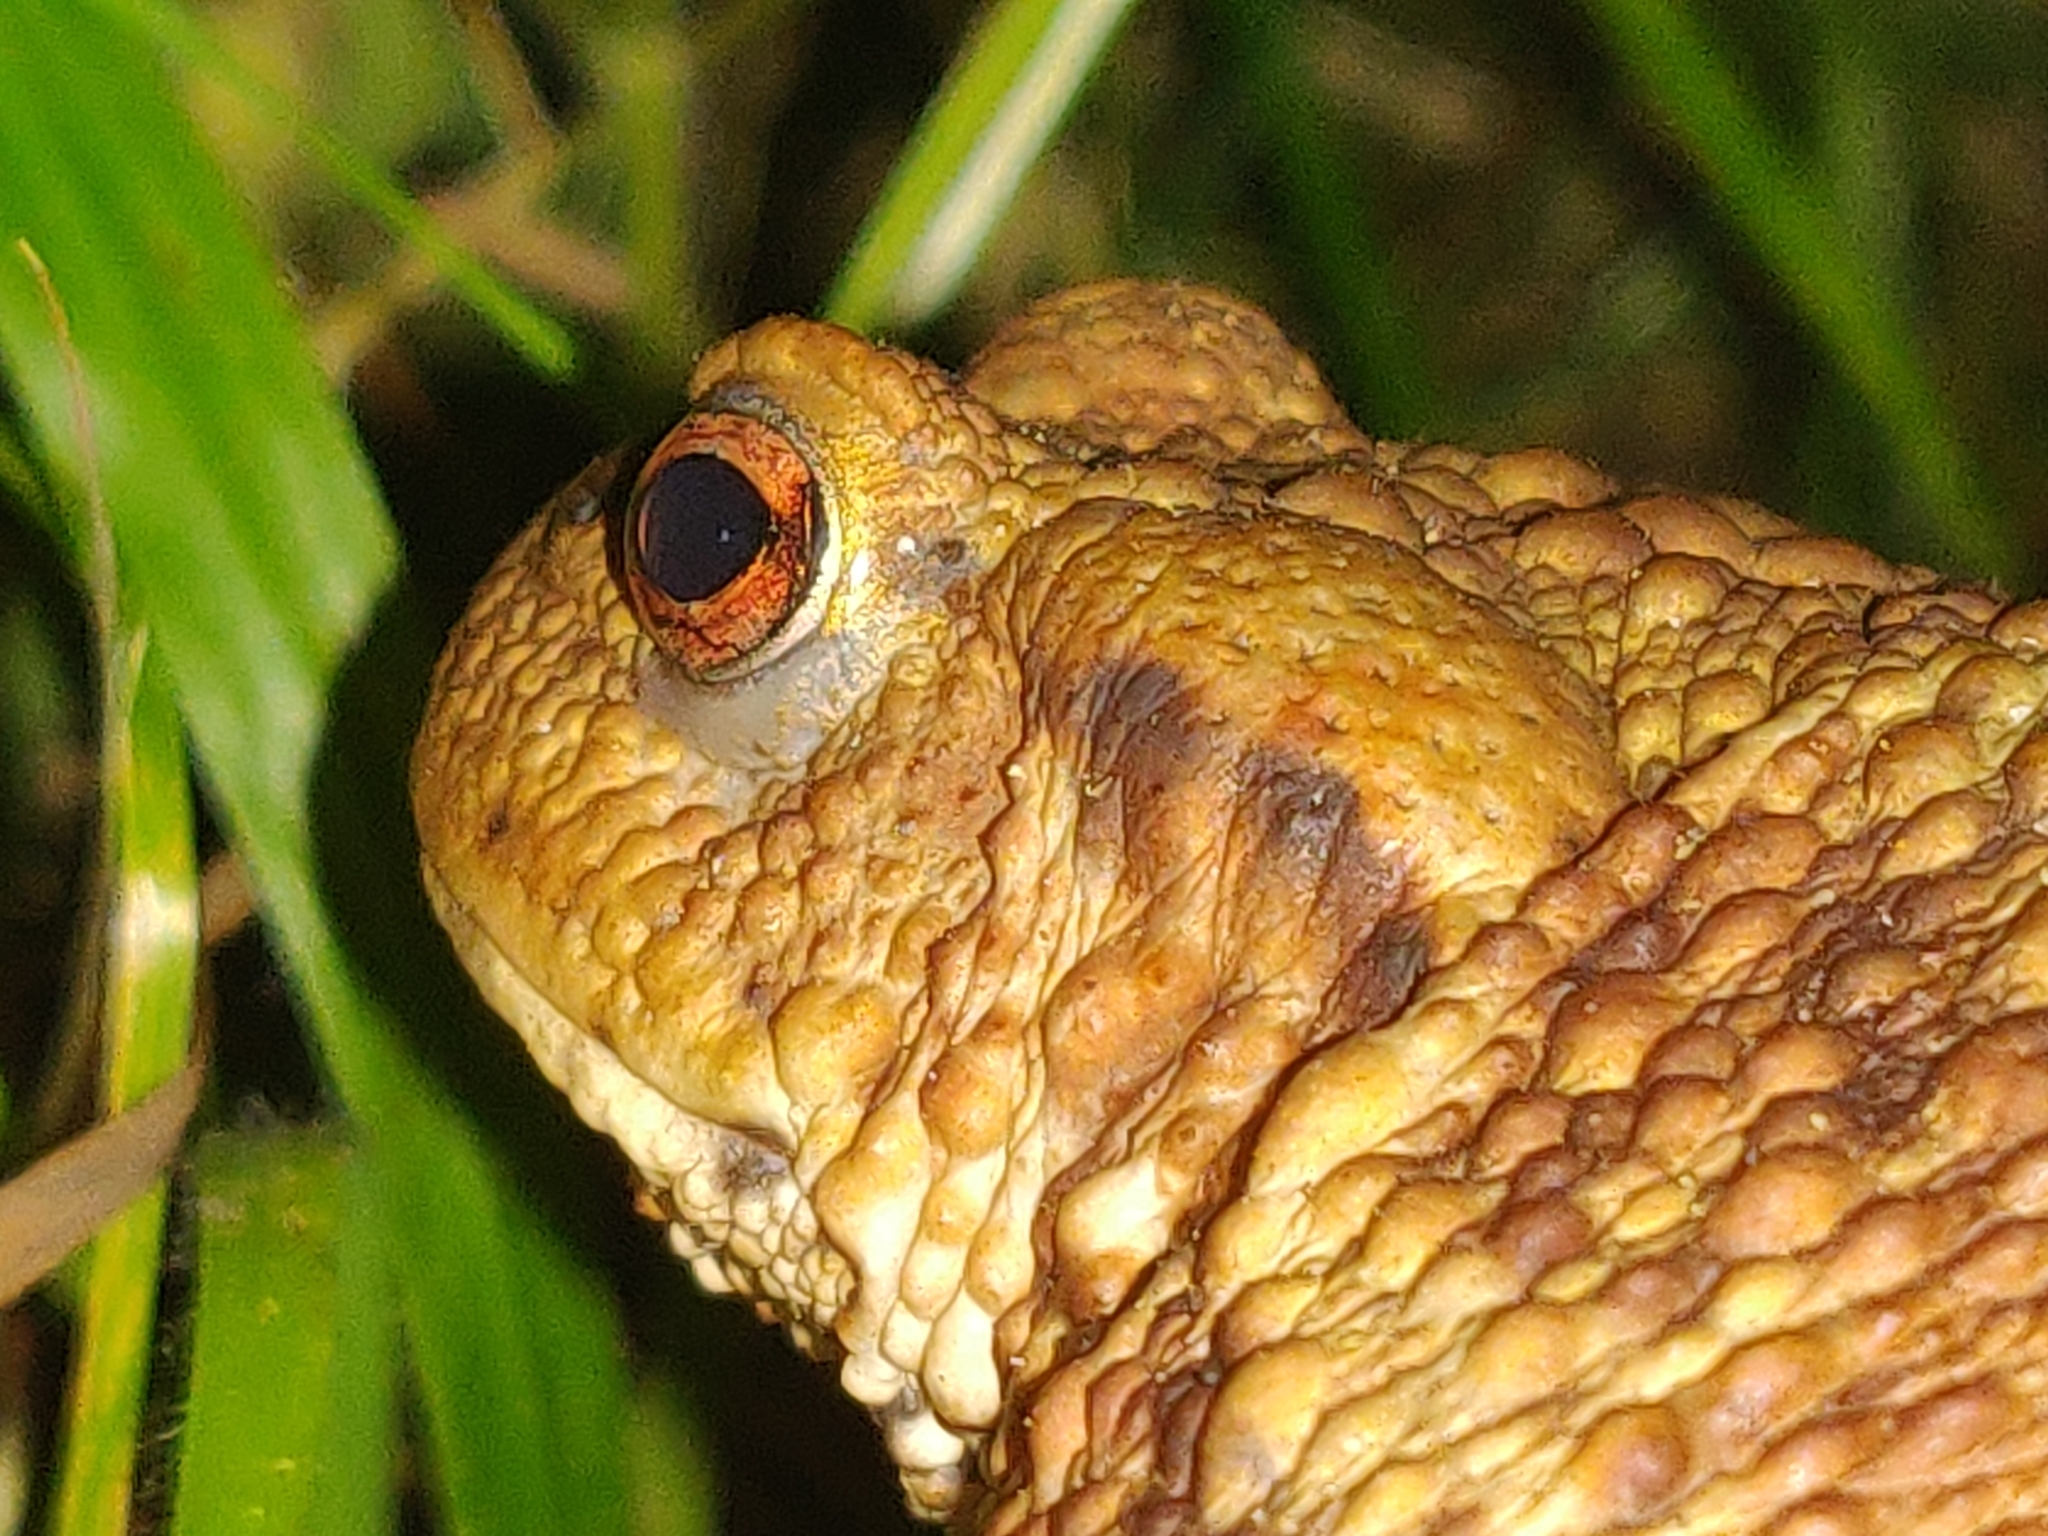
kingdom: Animalia
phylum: Chordata
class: Amphibia
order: Anura
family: Bufonidae
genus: Bufo
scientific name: Bufo bufo
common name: Common toad
